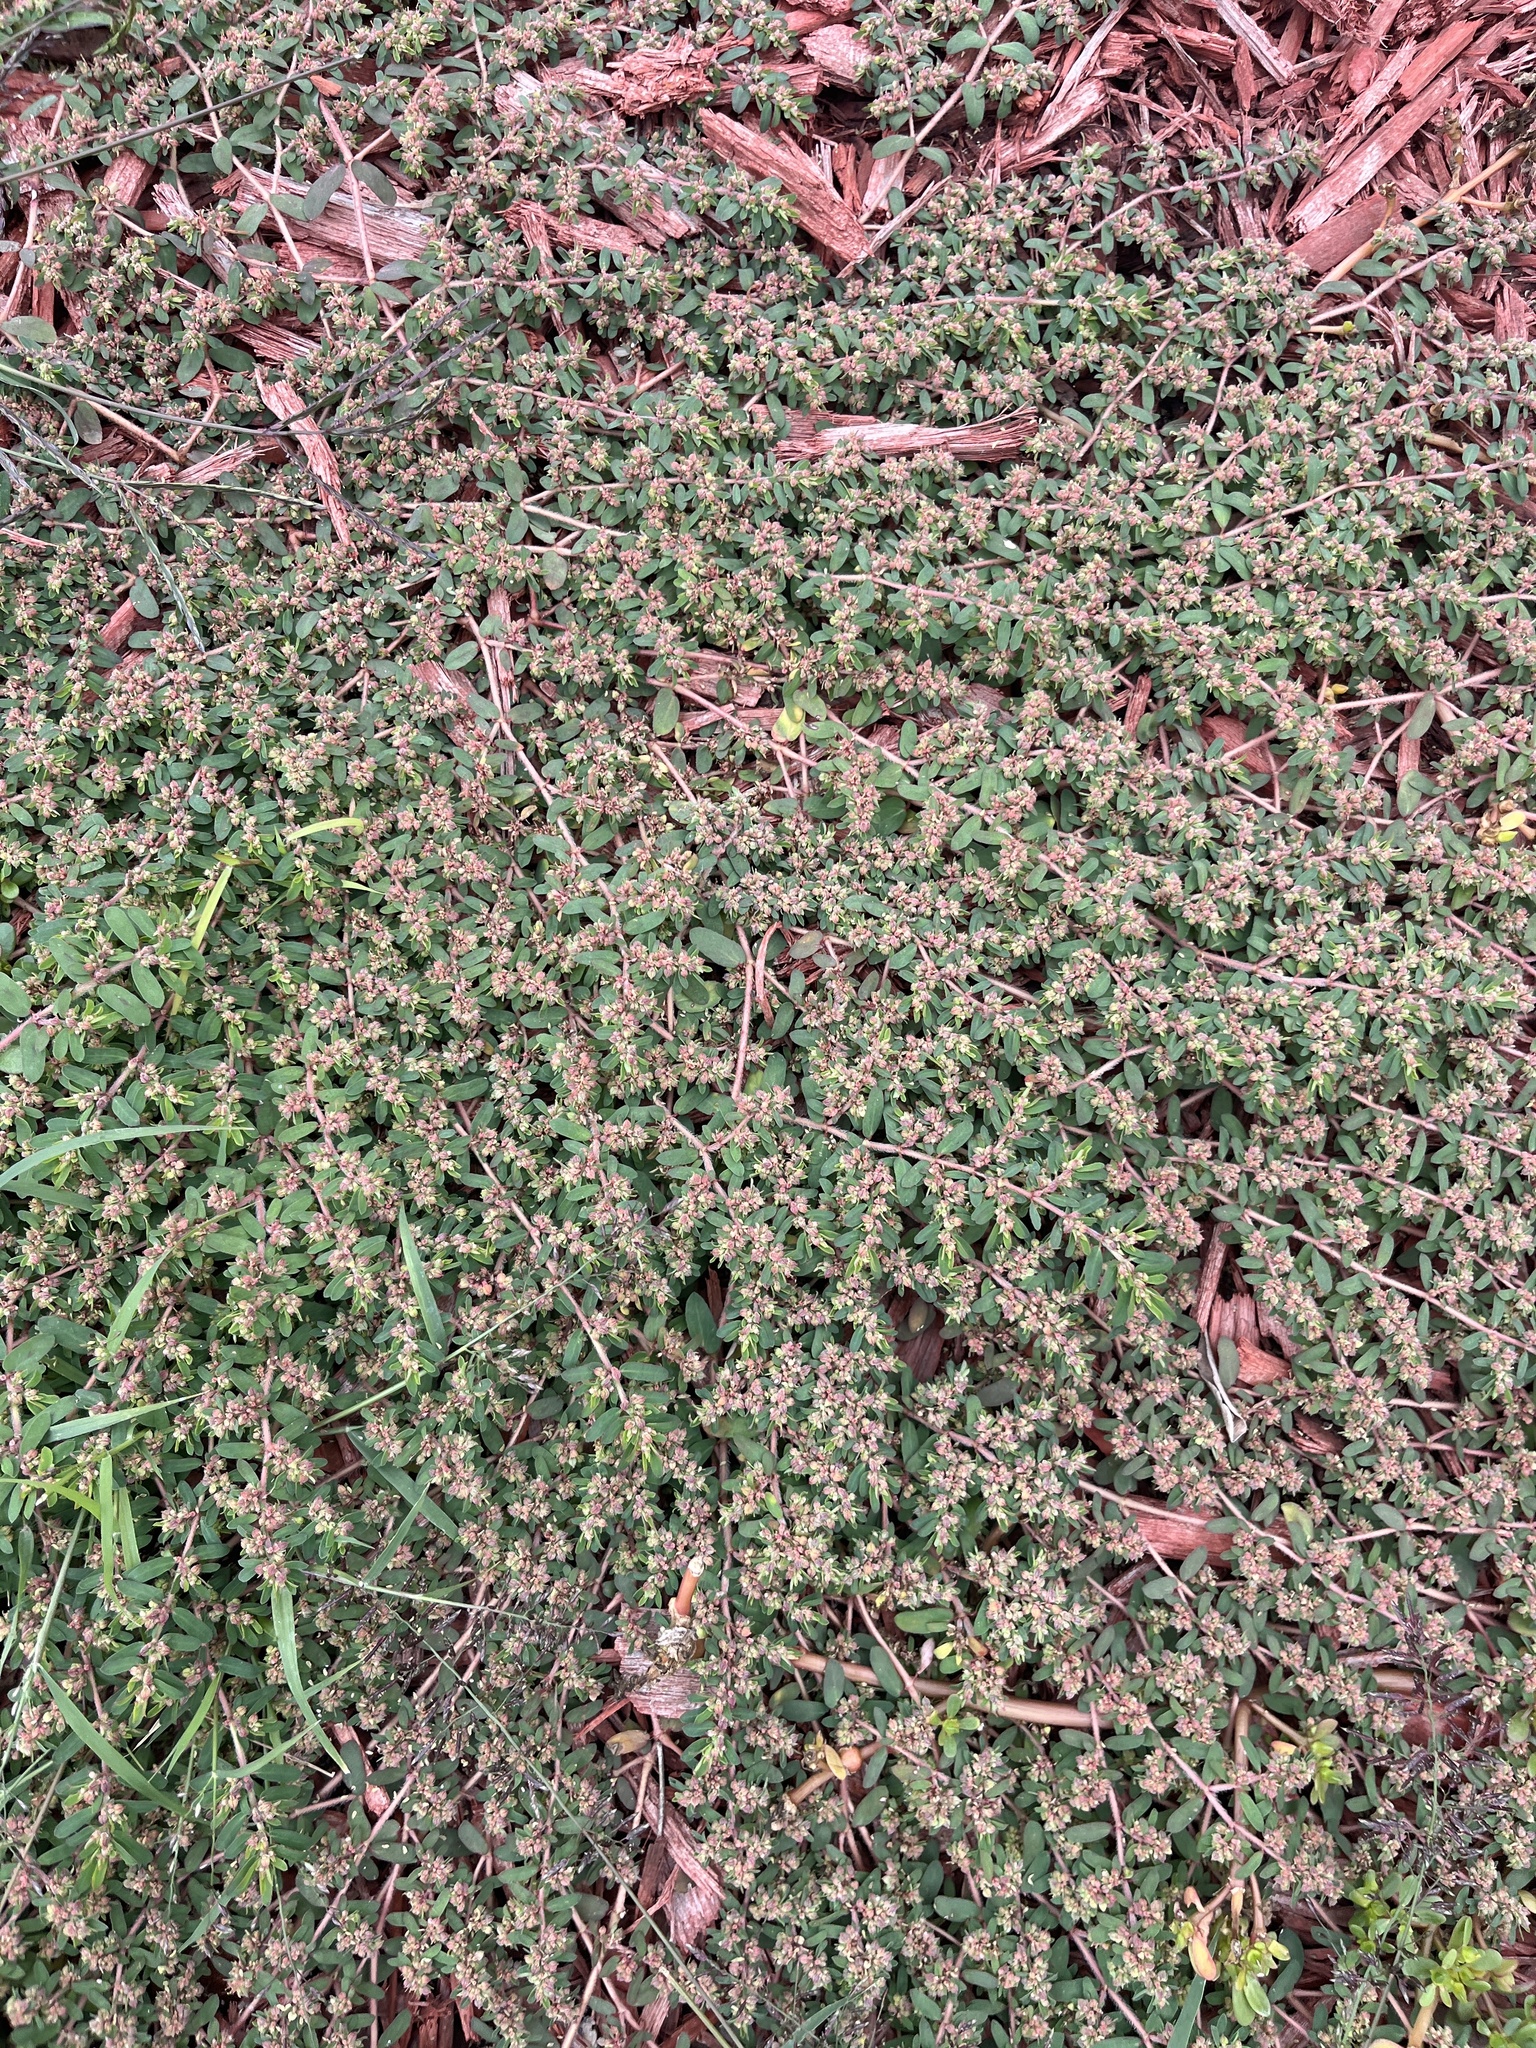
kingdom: Plantae
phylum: Tracheophyta
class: Magnoliopsida
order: Malpighiales
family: Euphorbiaceae
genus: Euphorbia
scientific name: Euphorbia maculata
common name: Spotted spurge
